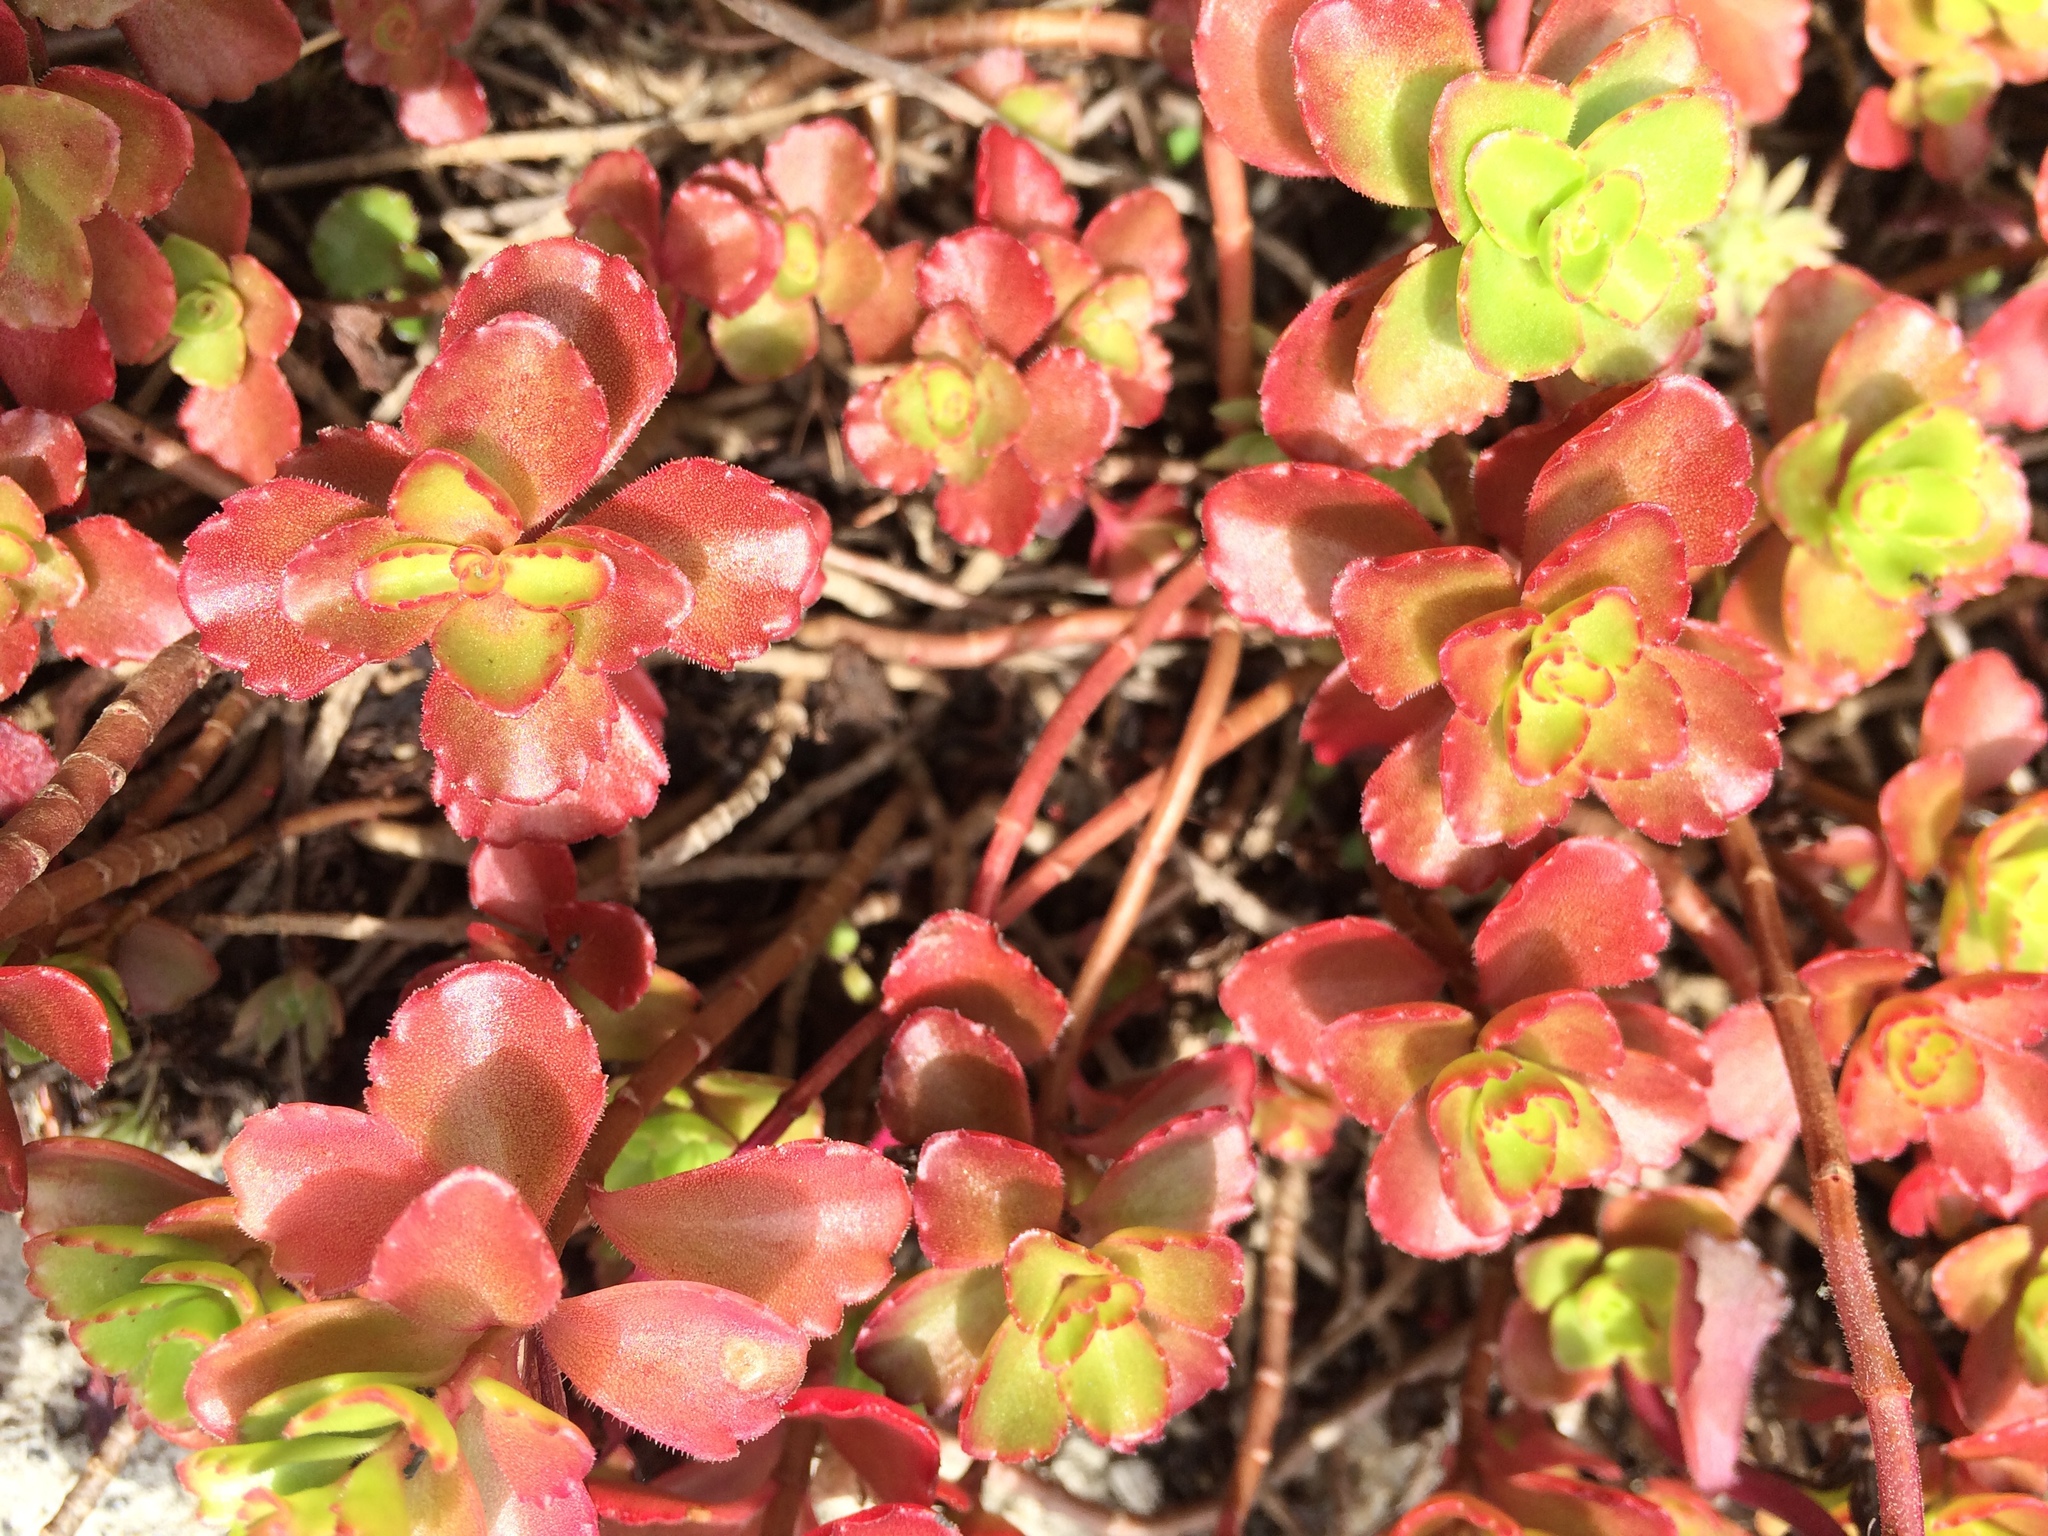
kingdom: Plantae
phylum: Tracheophyta
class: Magnoliopsida
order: Saxifragales
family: Crassulaceae
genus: Phedimus
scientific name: Phedimus spurius
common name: Caucasian stonecrop
